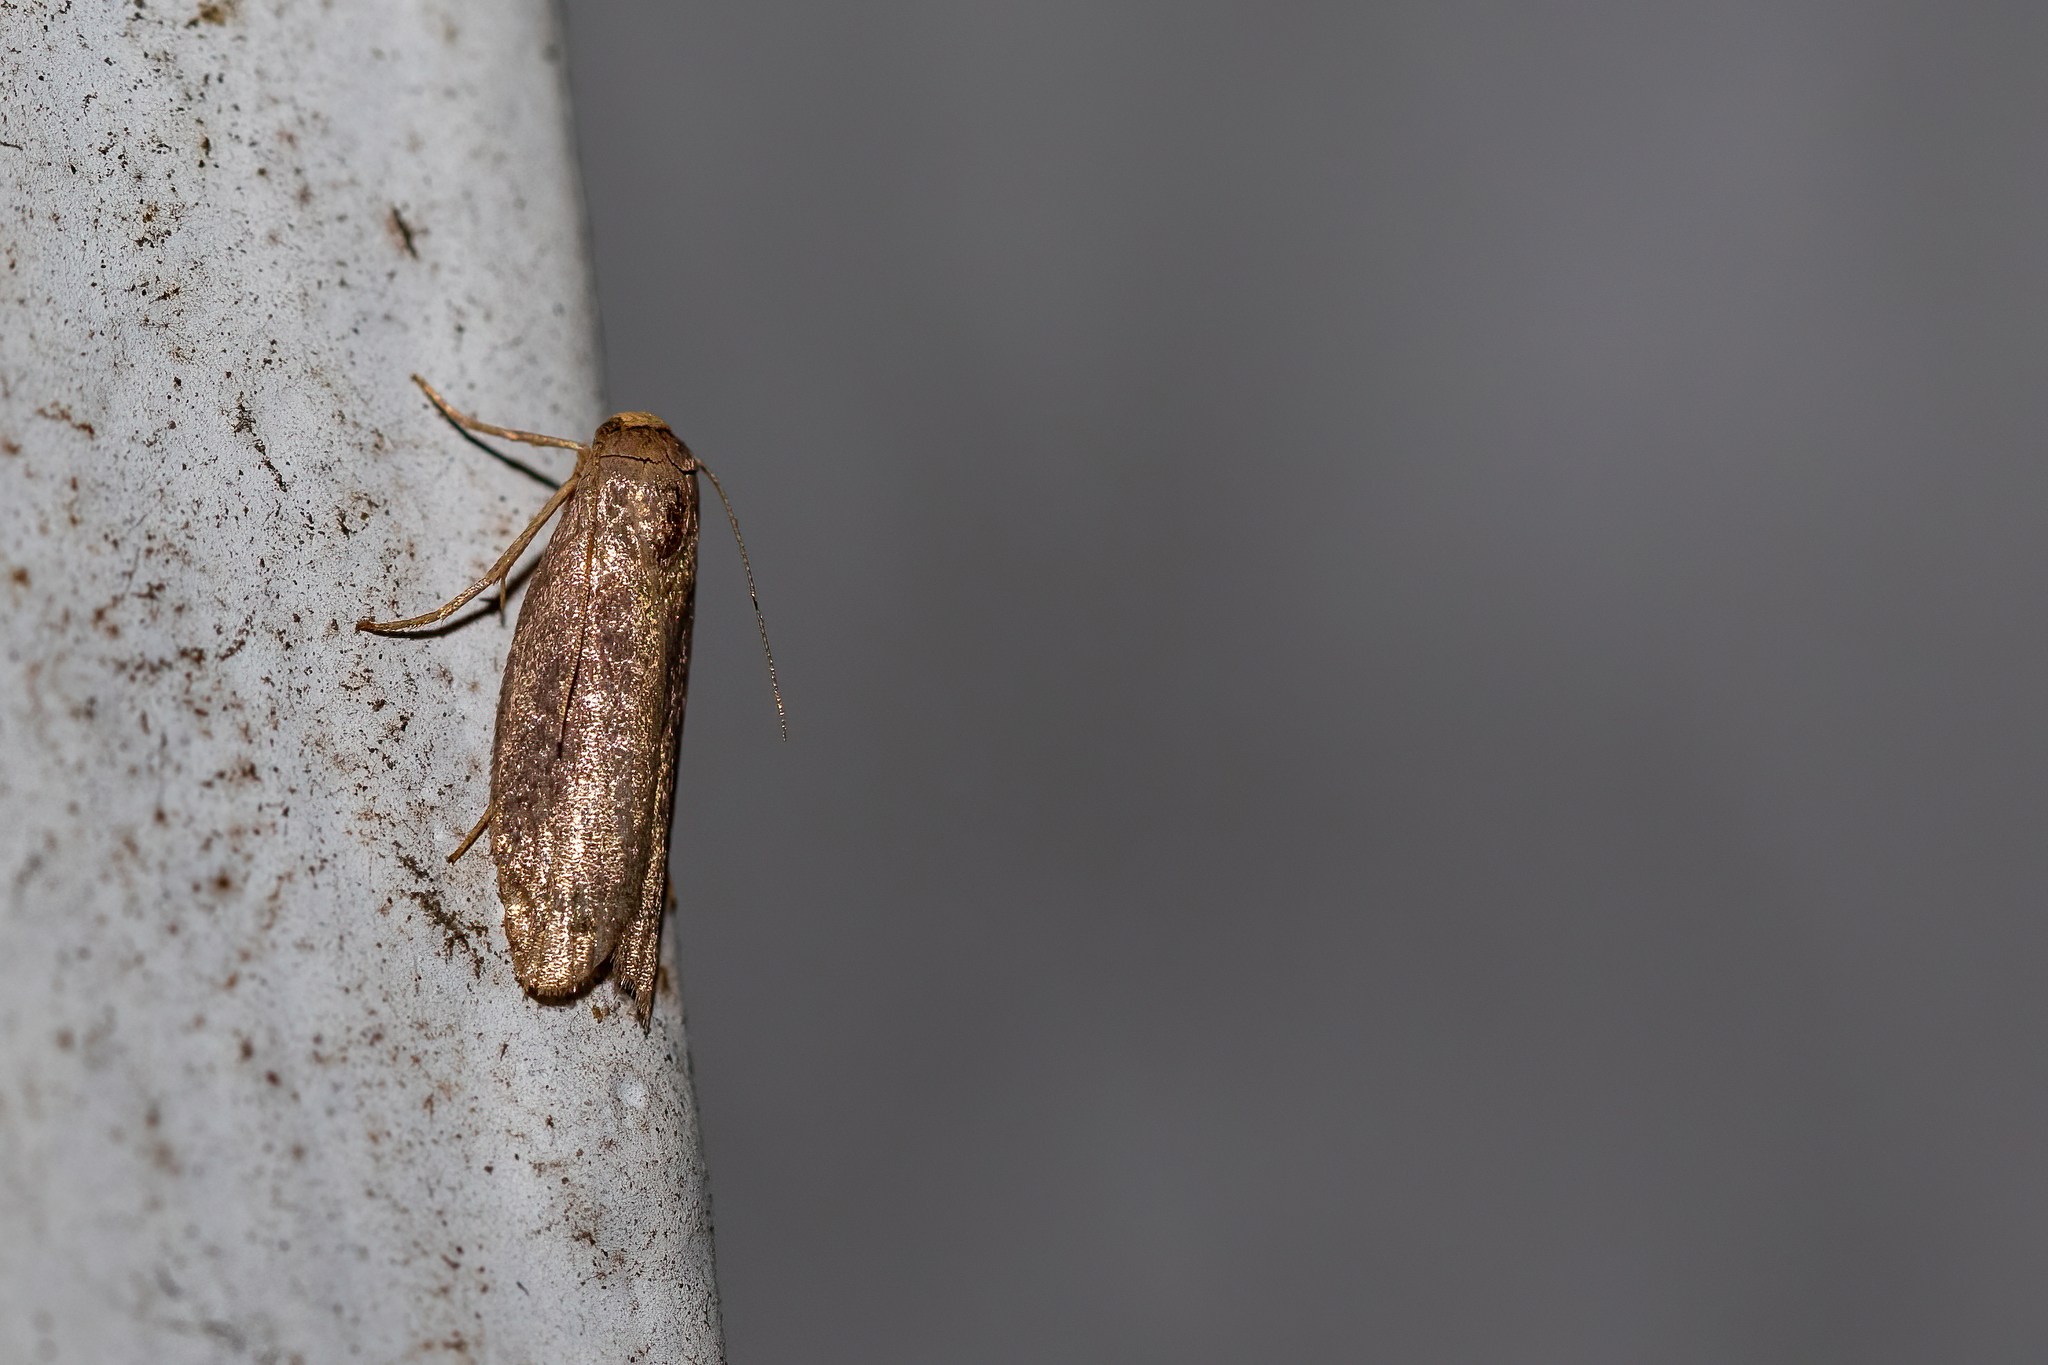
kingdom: Animalia
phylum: Arthropoda
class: Insecta
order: Lepidoptera
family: Pyralidae
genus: Achroia
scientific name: Achroia grisella
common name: Lesser wax moth
